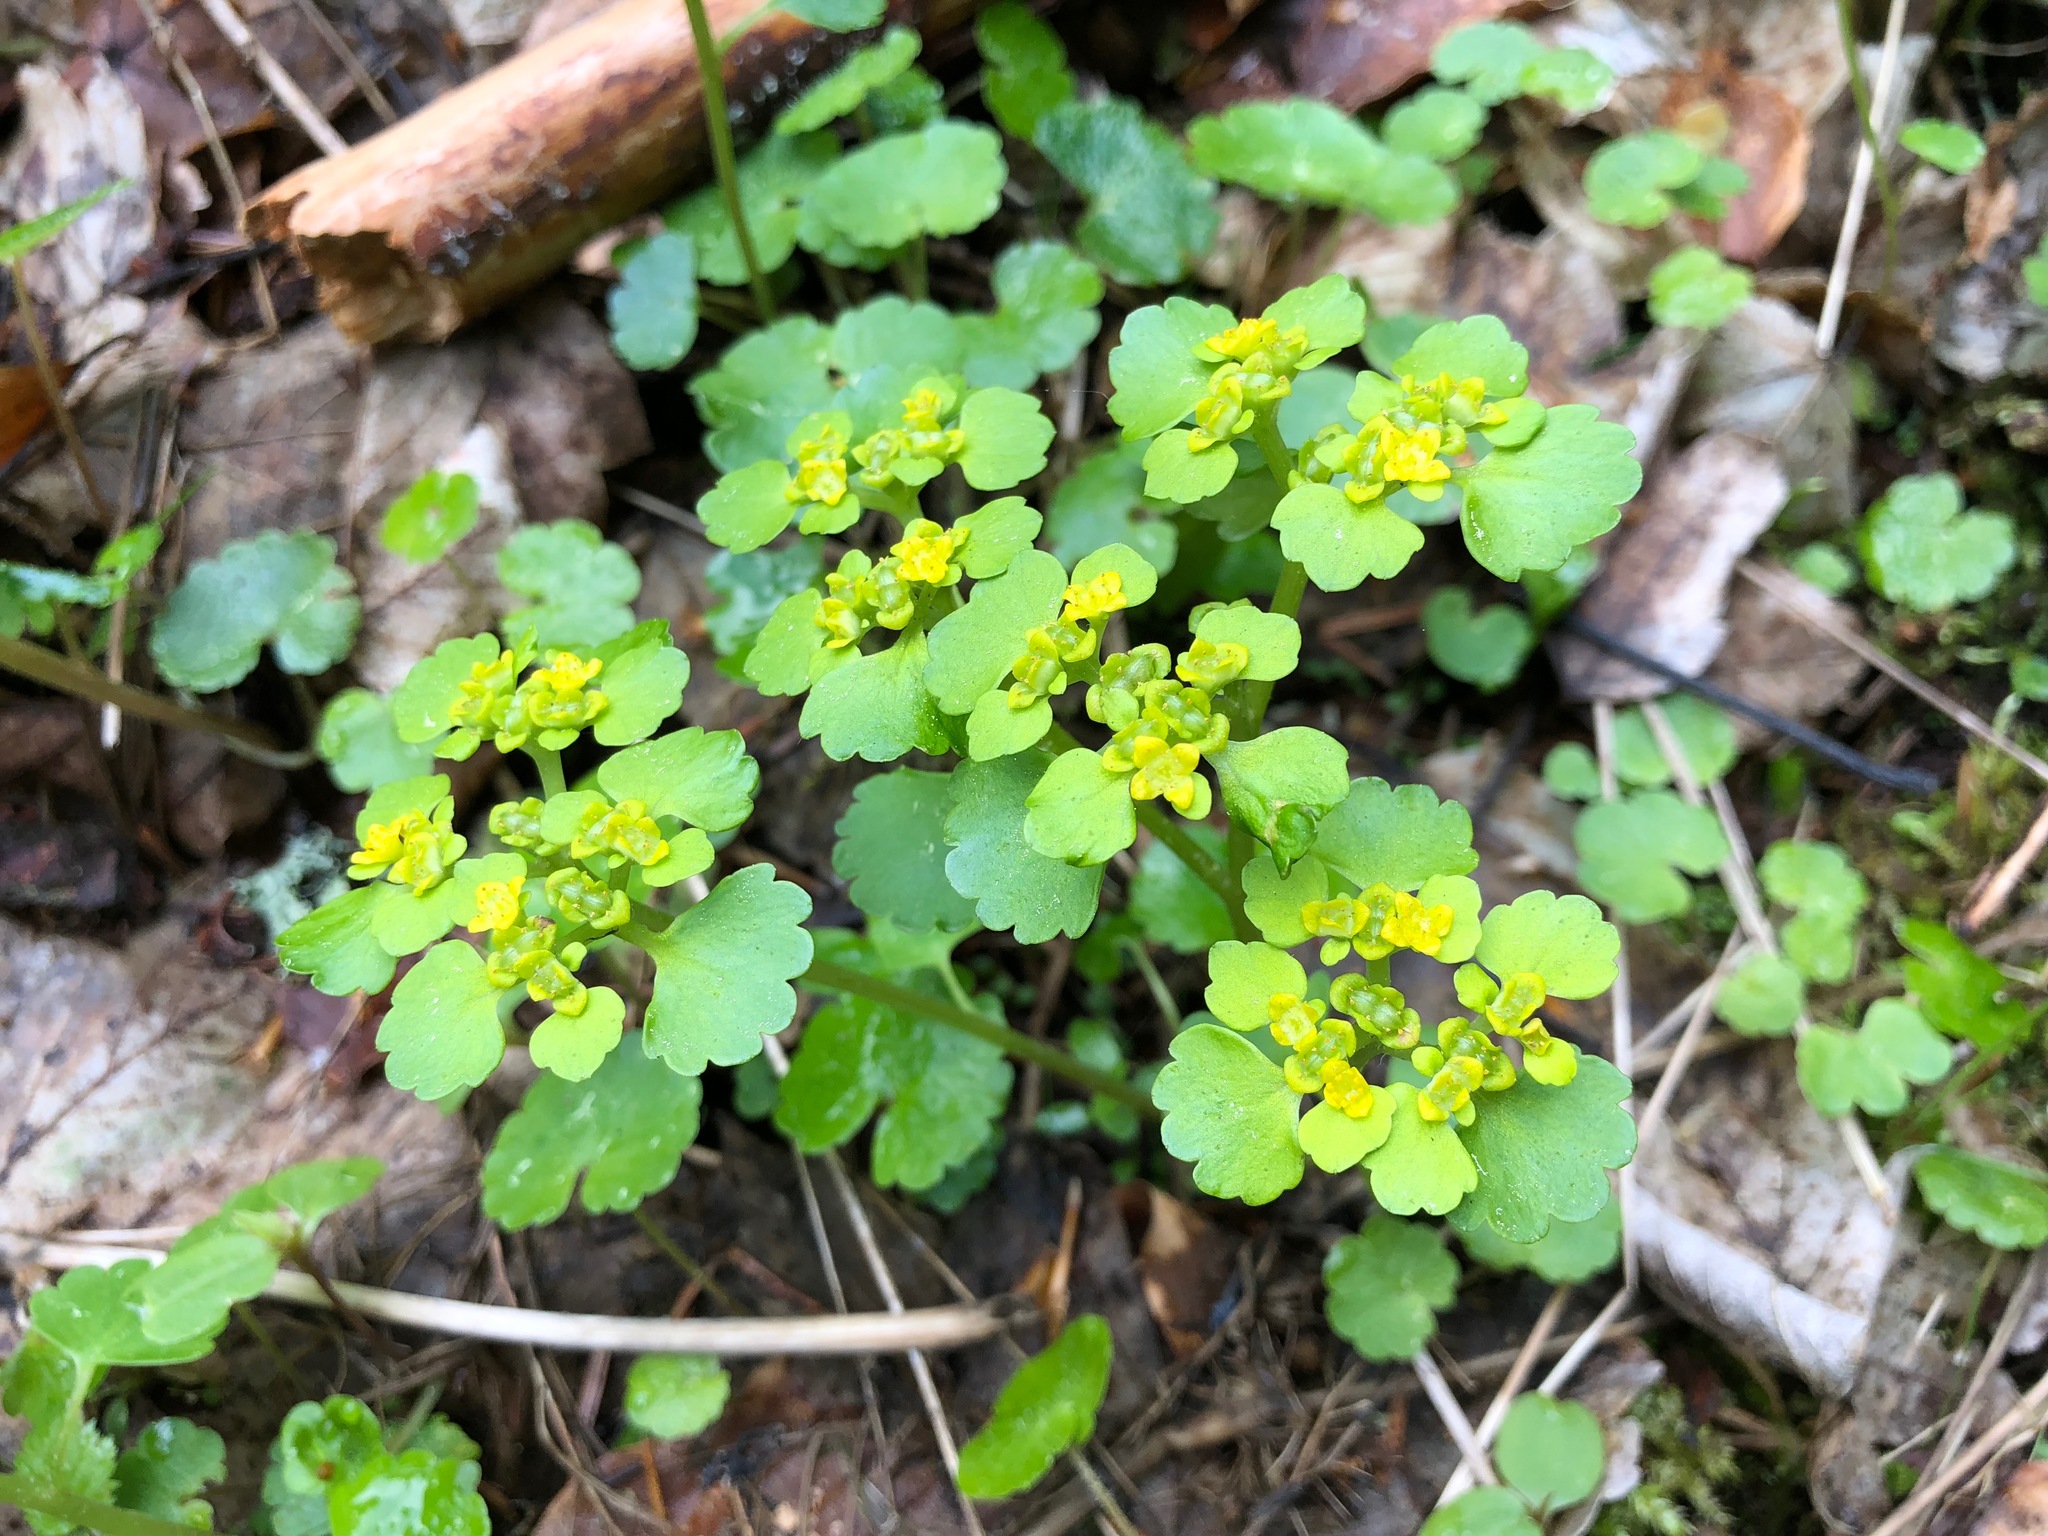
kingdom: Plantae
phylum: Tracheophyta
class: Magnoliopsida
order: Saxifragales
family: Saxifragaceae
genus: Chrysosplenium
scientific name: Chrysosplenium alternifolium
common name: Alternate-leaved golden-saxifrage
